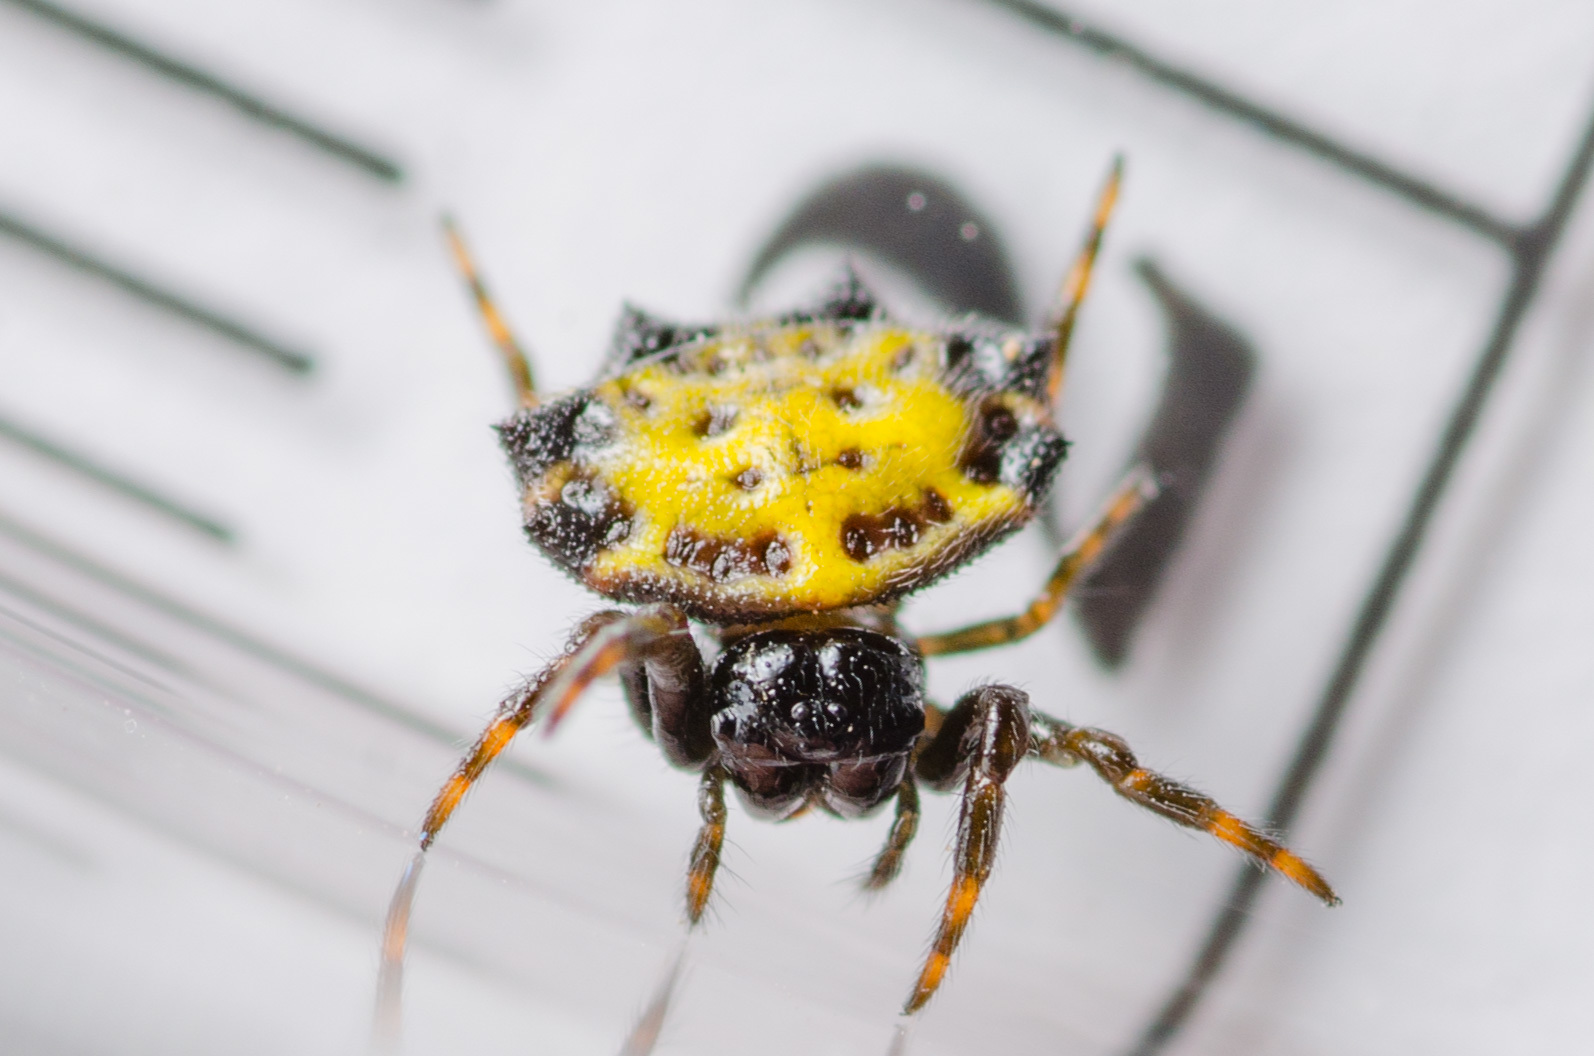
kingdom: Animalia
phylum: Arthropoda
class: Arachnida
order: Araneae
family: Araneidae
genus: Gasteracantha
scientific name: Gasteracantha cancriformis
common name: Orb weavers
